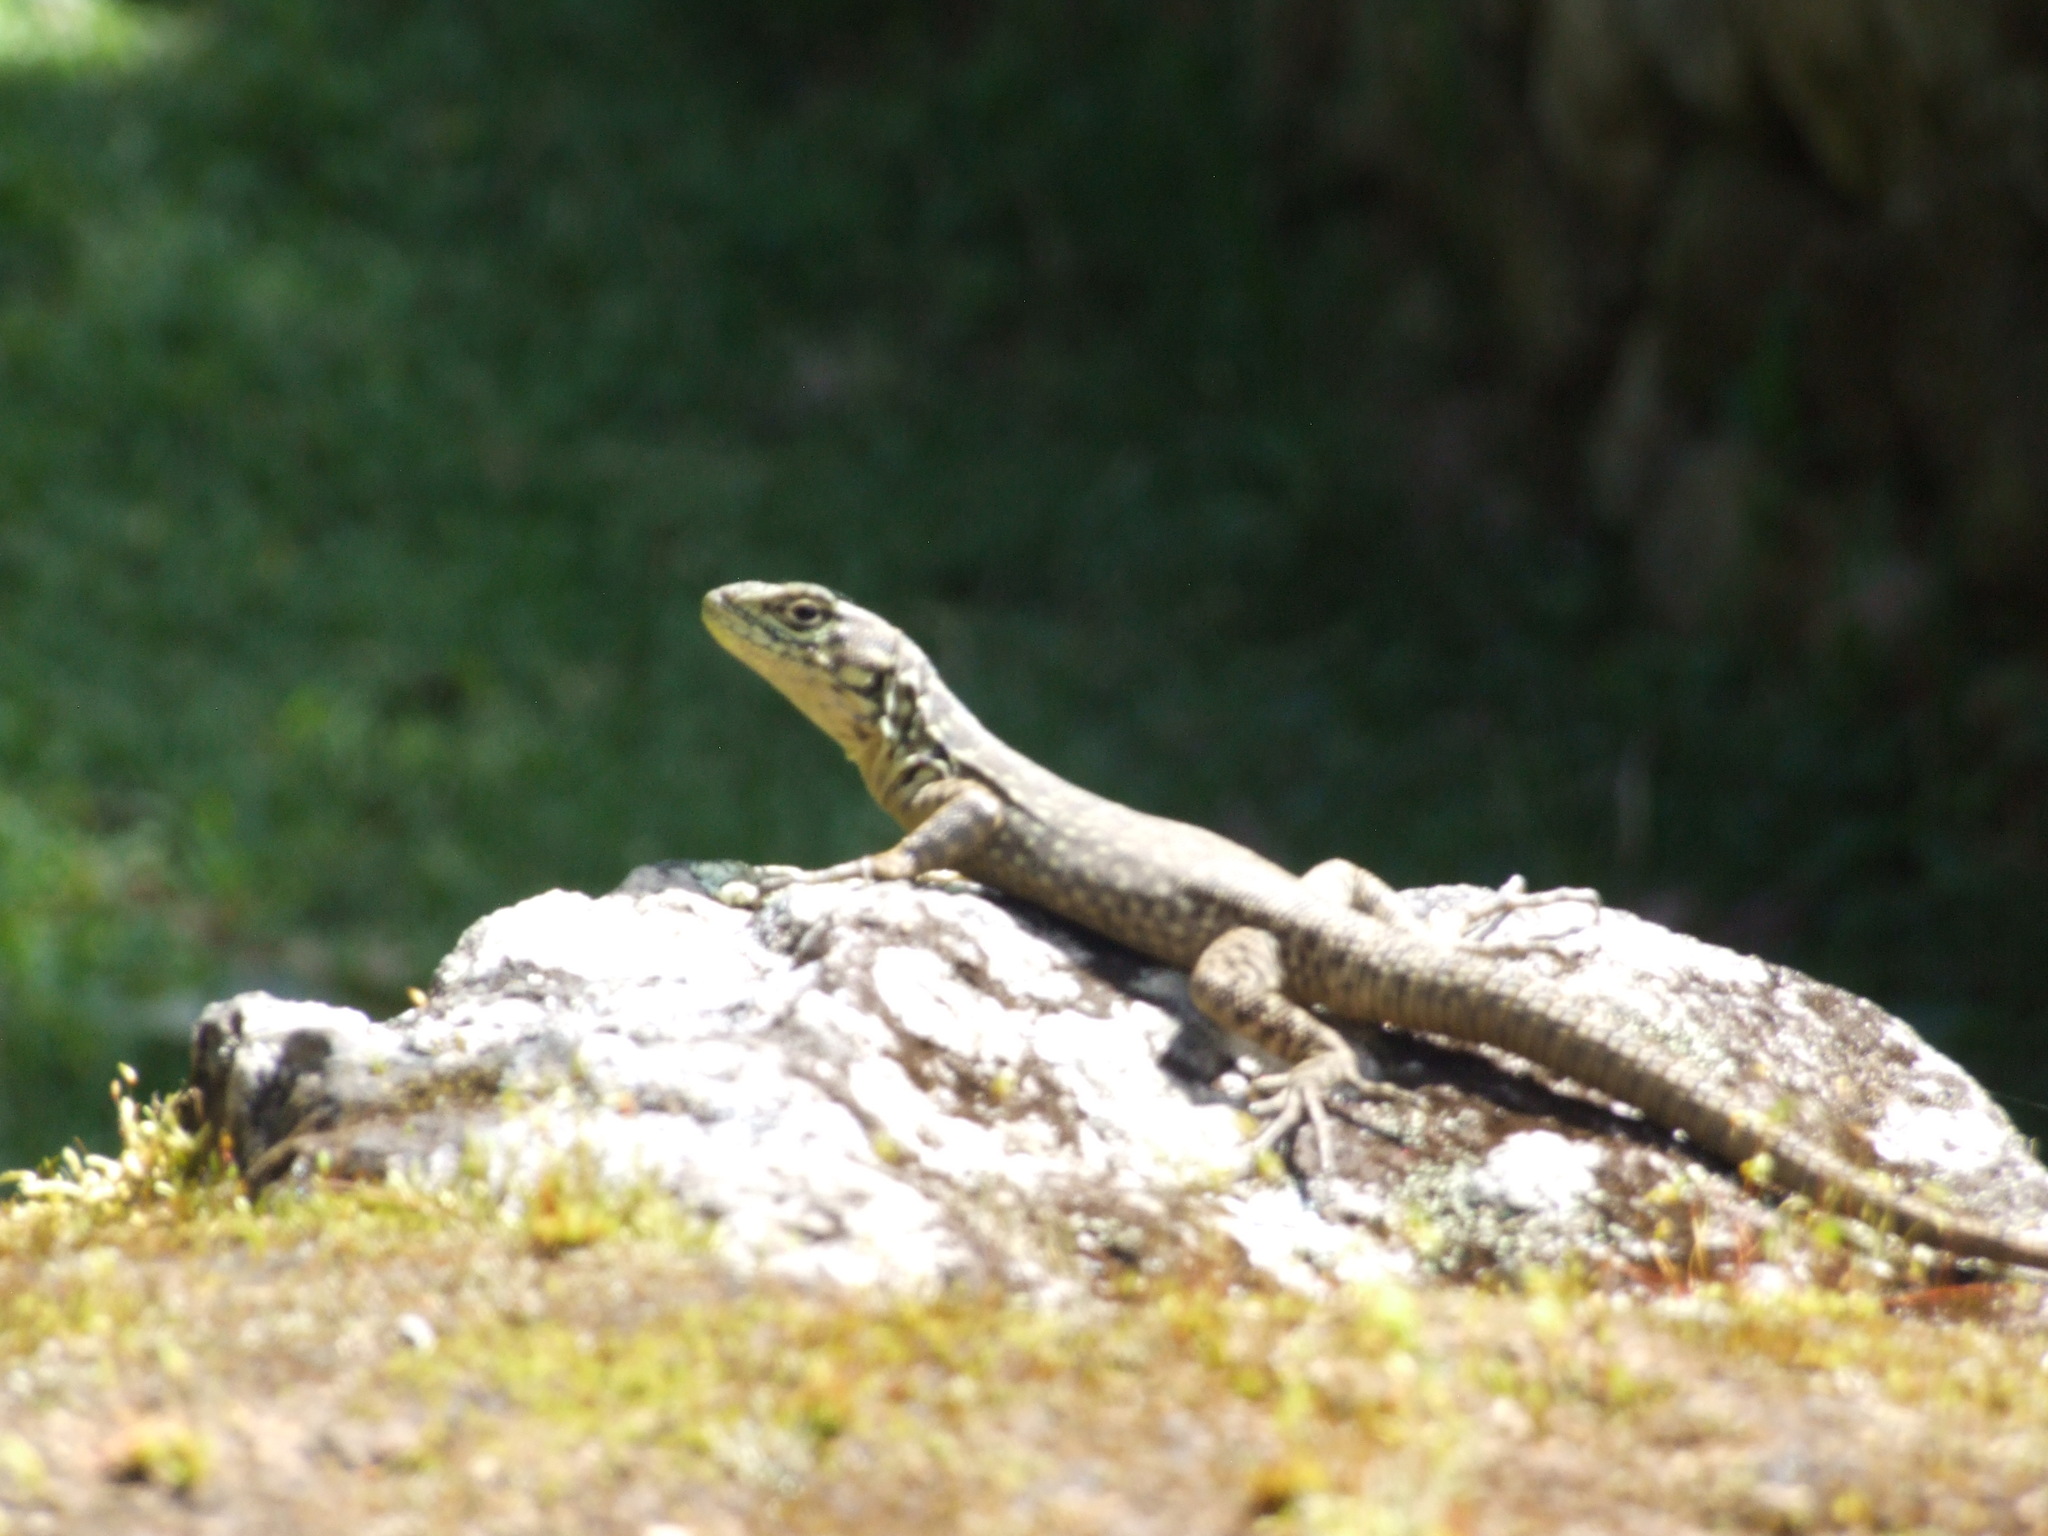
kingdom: Animalia
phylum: Chordata
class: Squamata
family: Tropiduridae
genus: Stenocercus
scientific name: Stenocercus crassicaudatus
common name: Spiny whorltail iguana
